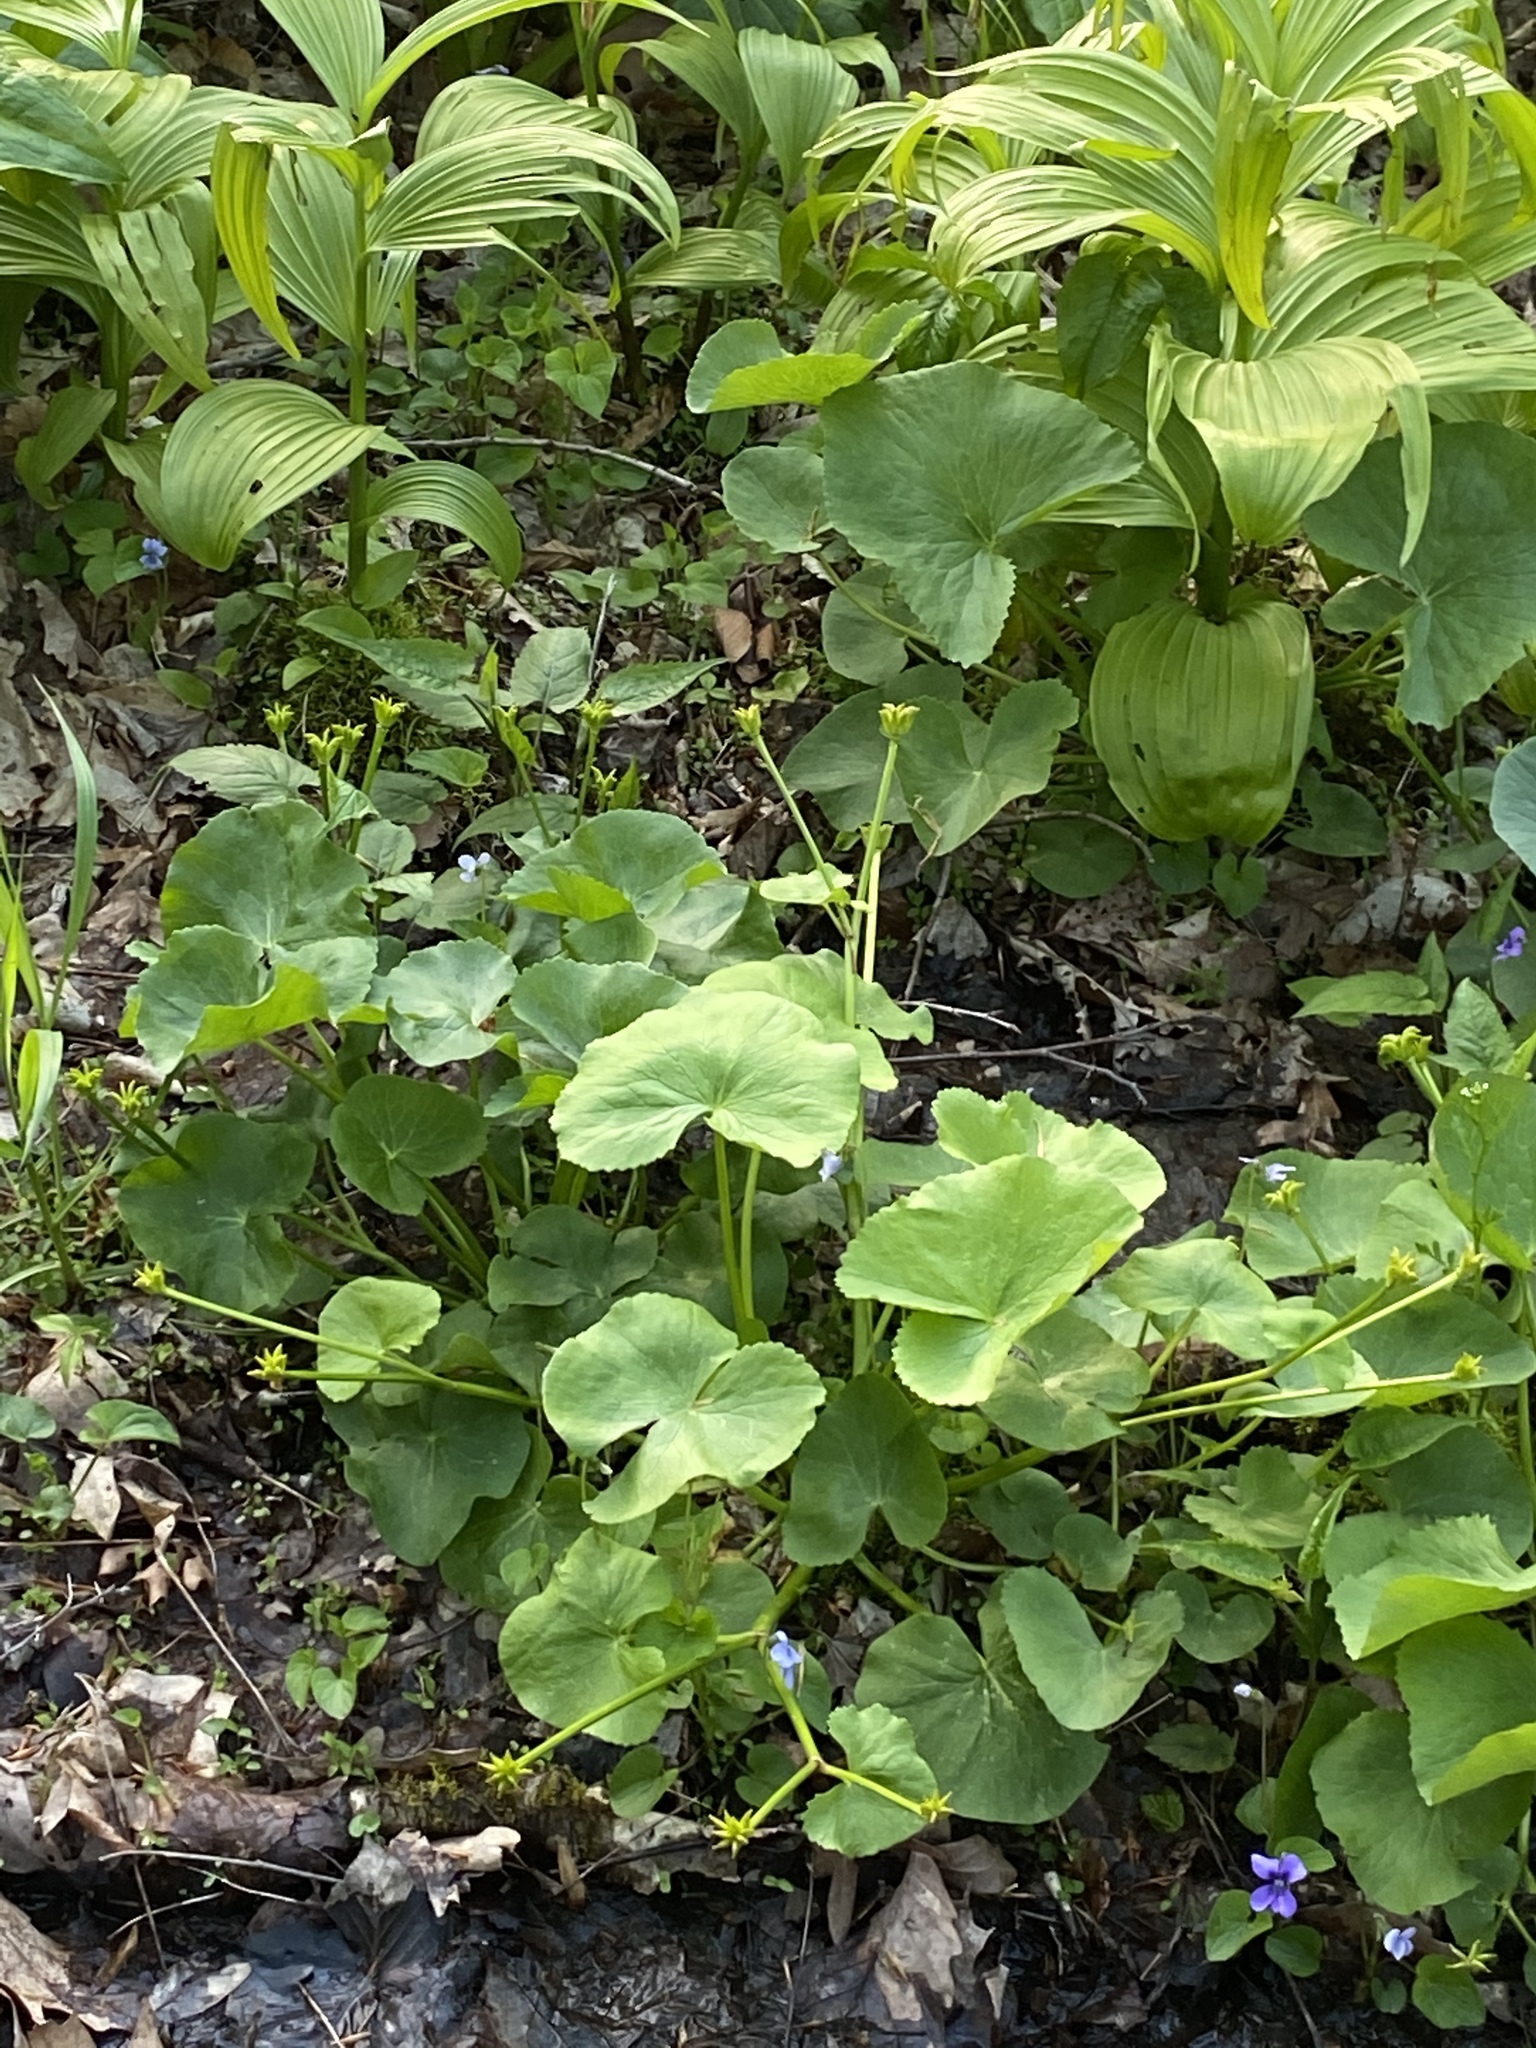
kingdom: Plantae
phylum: Tracheophyta
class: Magnoliopsida
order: Ranunculales
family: Ranunculaceae
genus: Caltha
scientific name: Caltha palustris
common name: Marsh marigold
